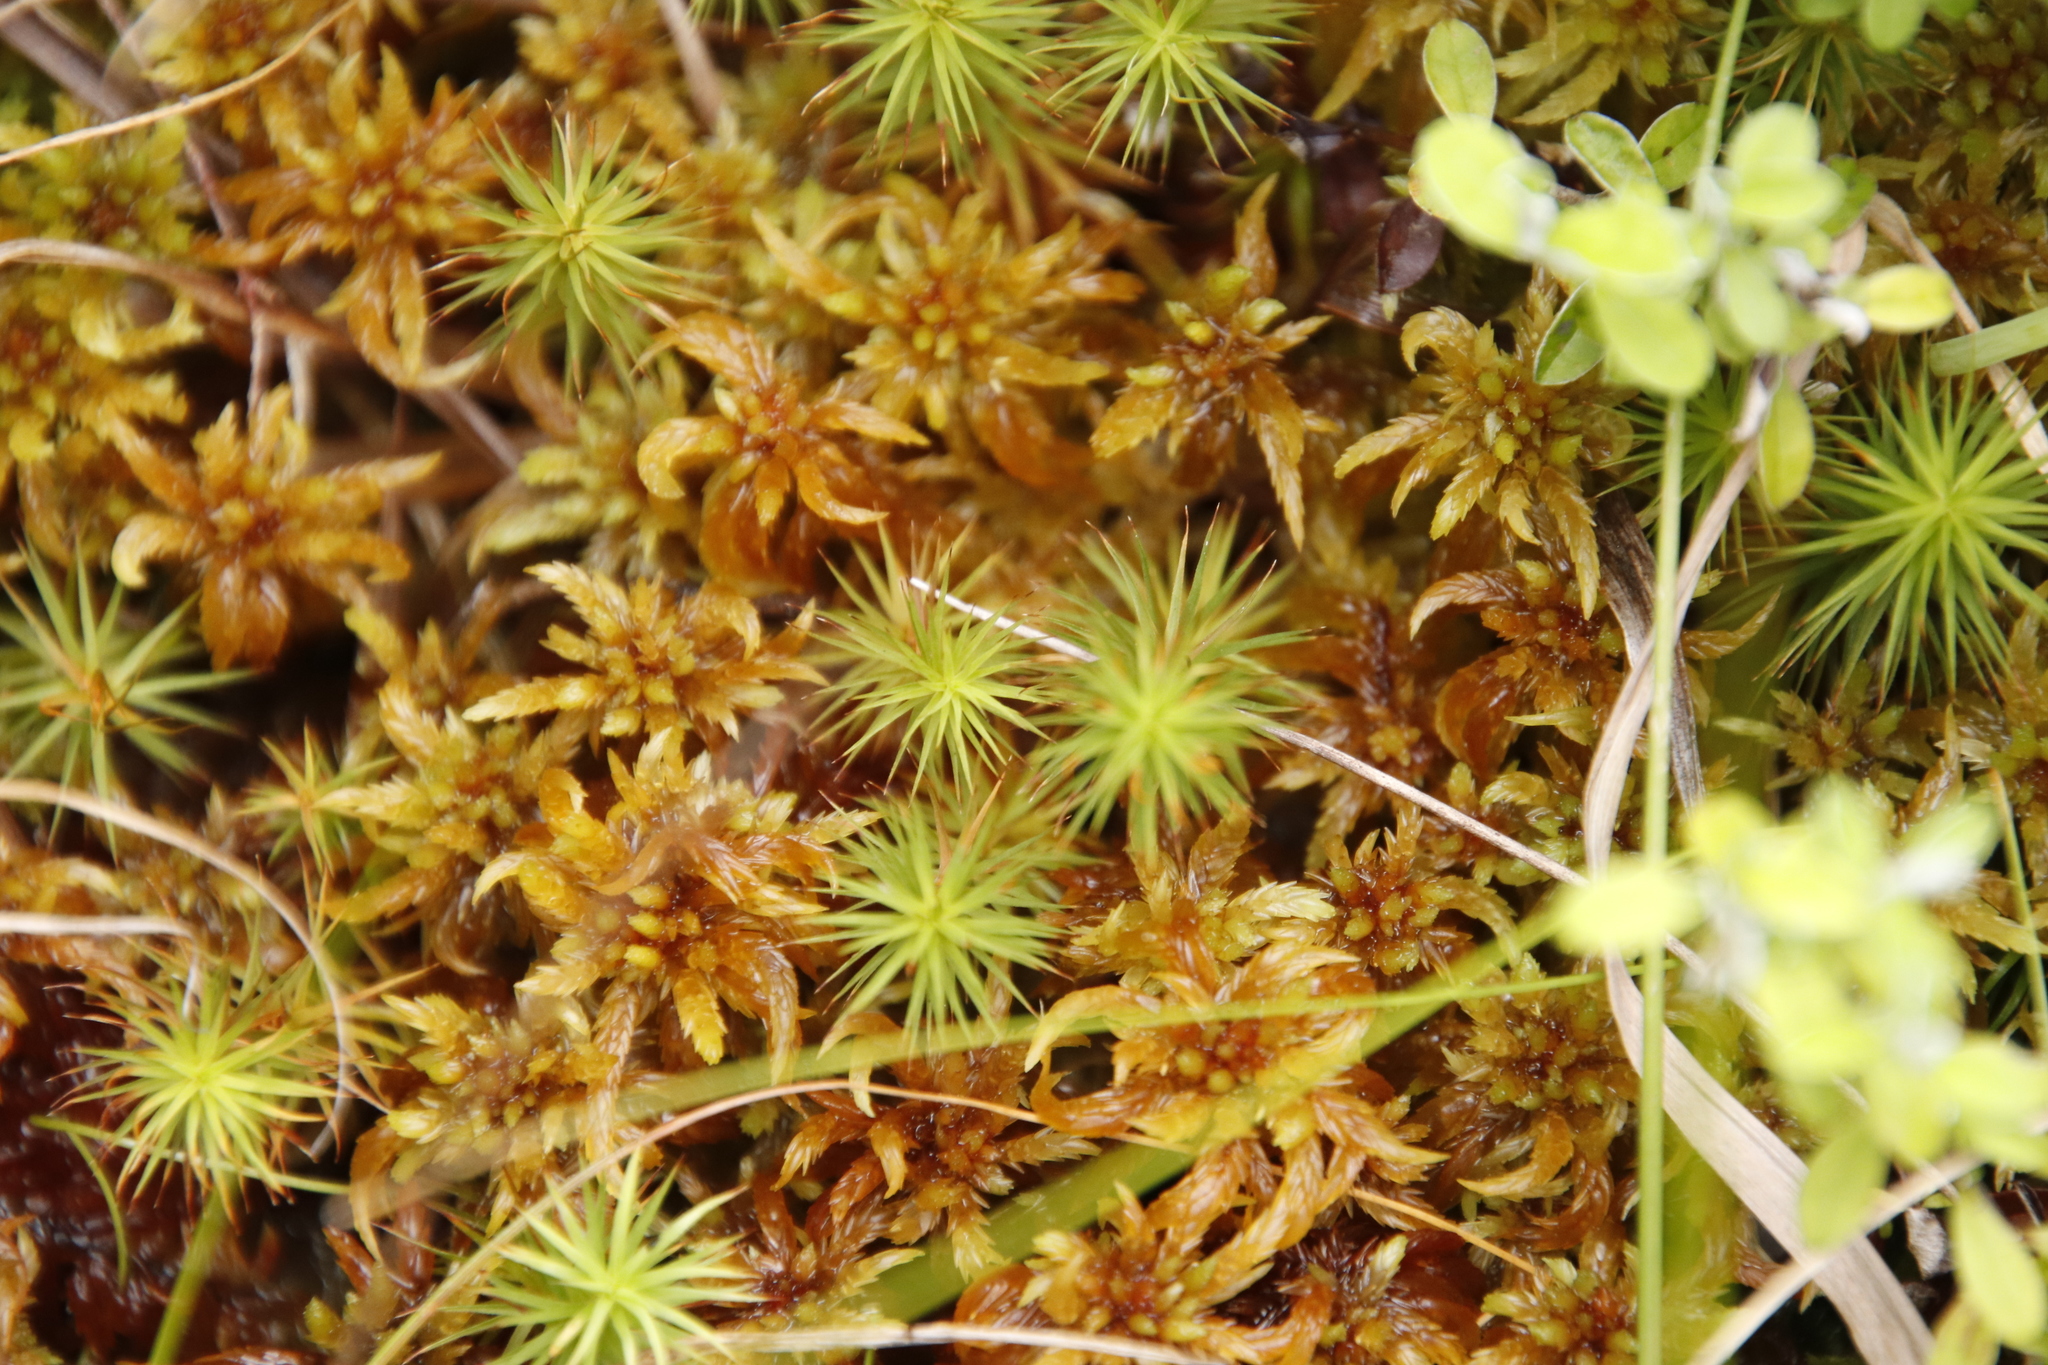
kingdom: Plantae
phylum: Bryophyta
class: Polytrichopsida
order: Polytrichales
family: Polytrichaceae
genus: Polytrichum
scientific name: Polytrichum subpilosum
